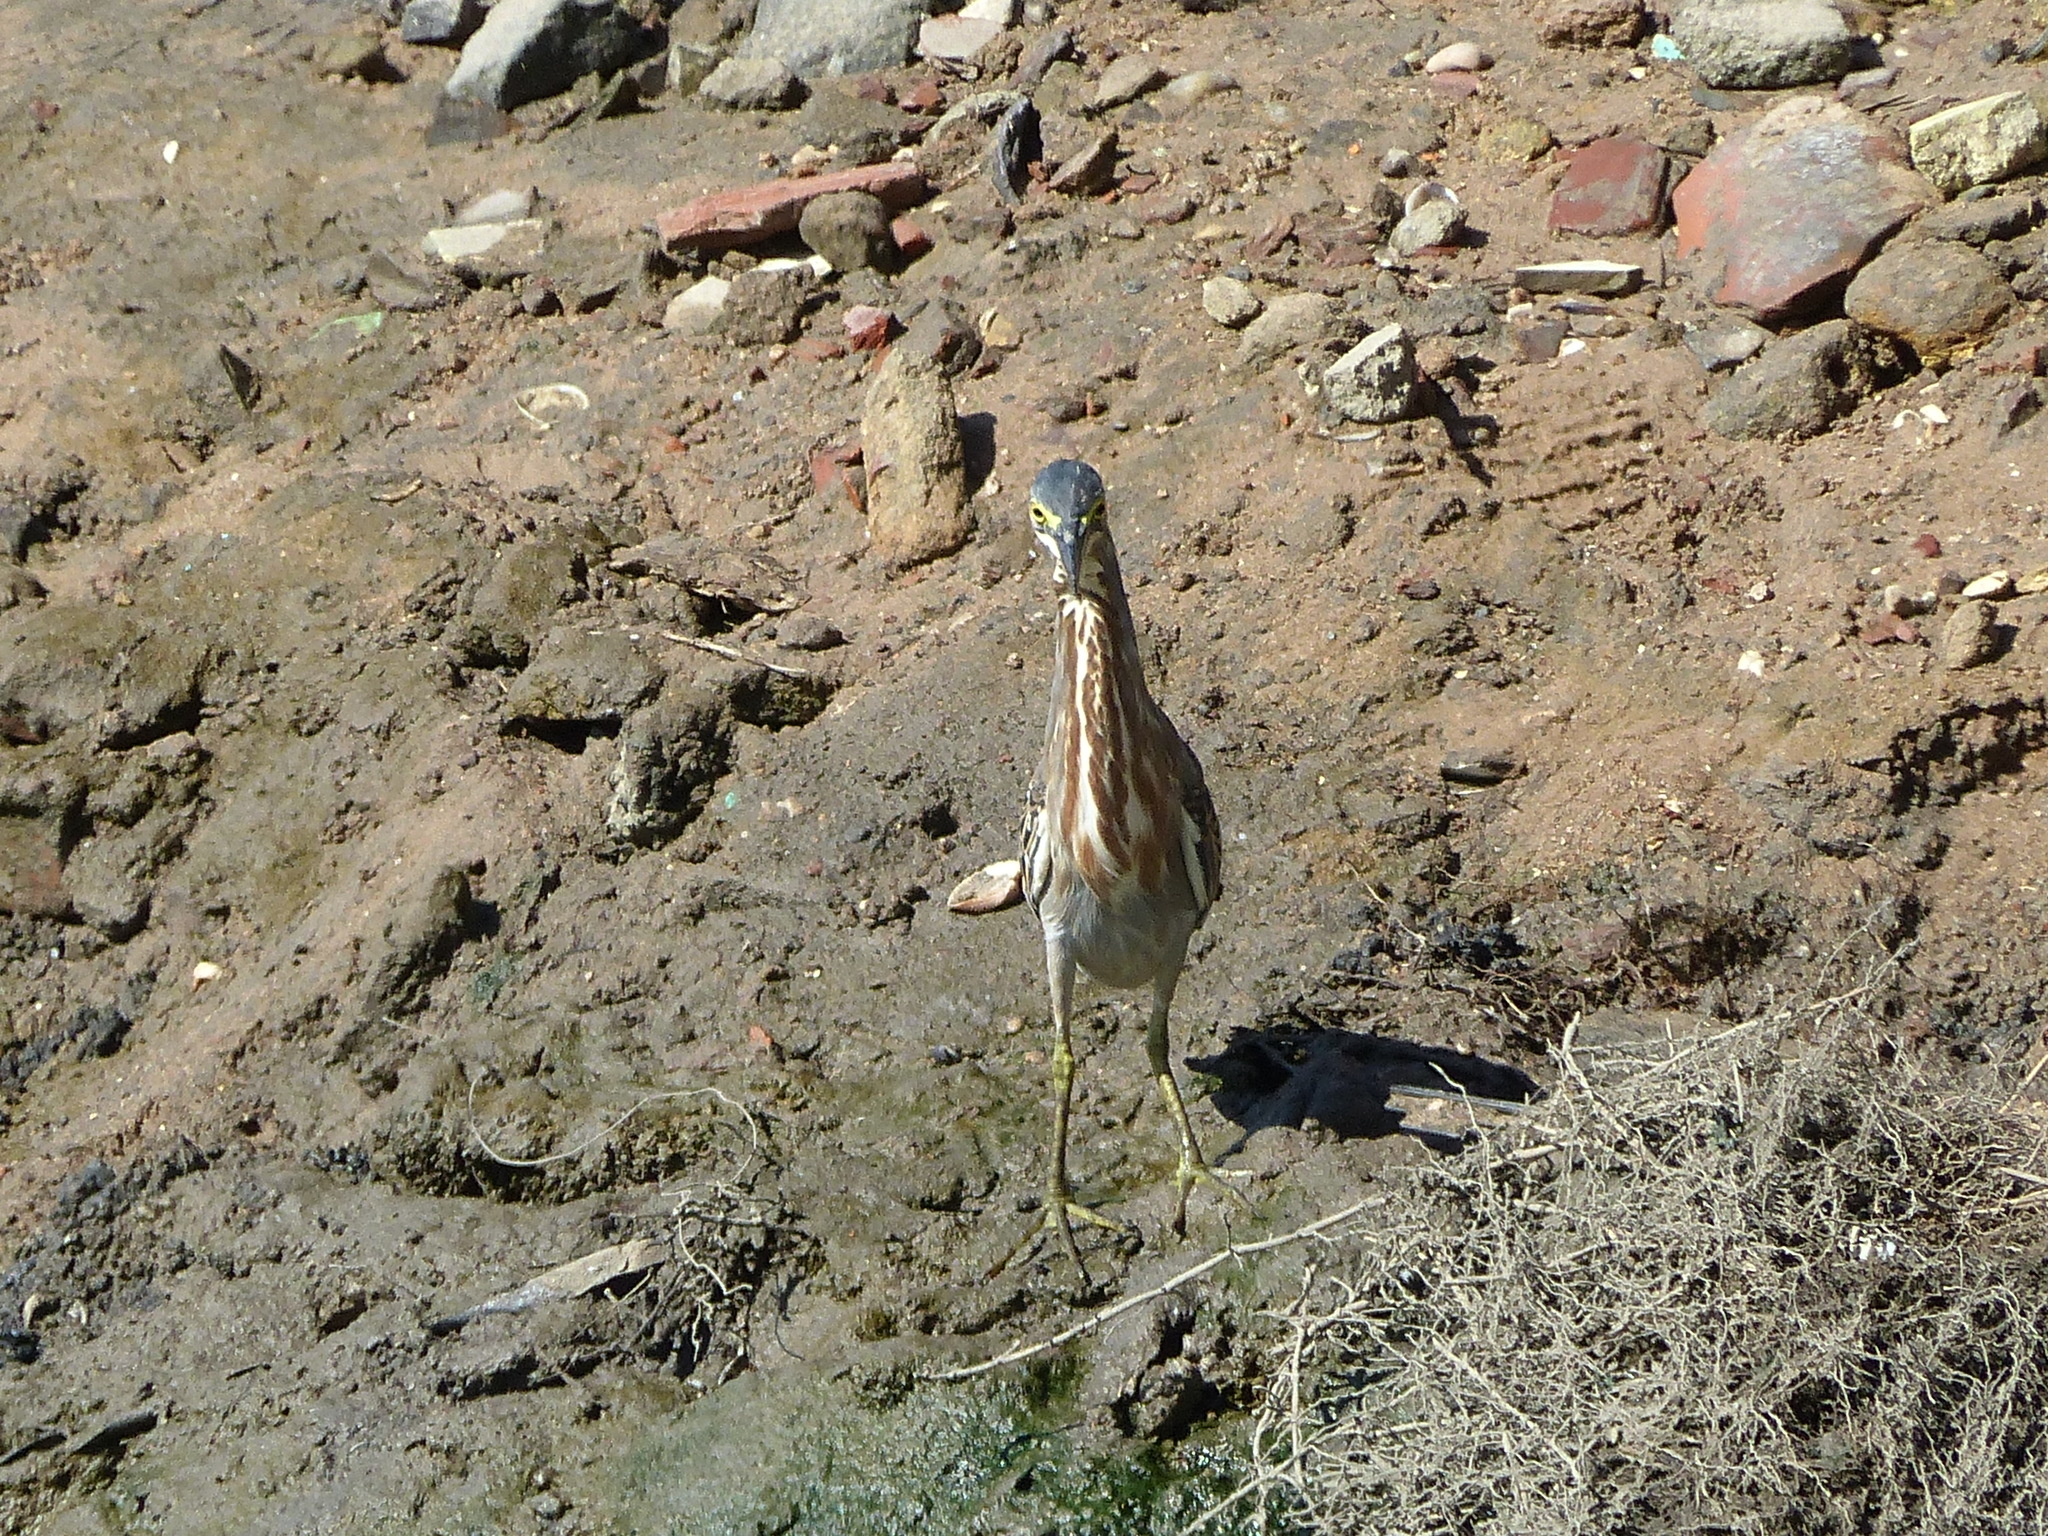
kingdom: Animalia
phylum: Chordata
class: Aves
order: Pelecaniformes
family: Ardeidae
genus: Butorides
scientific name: Butorides striata
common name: Striated heron
